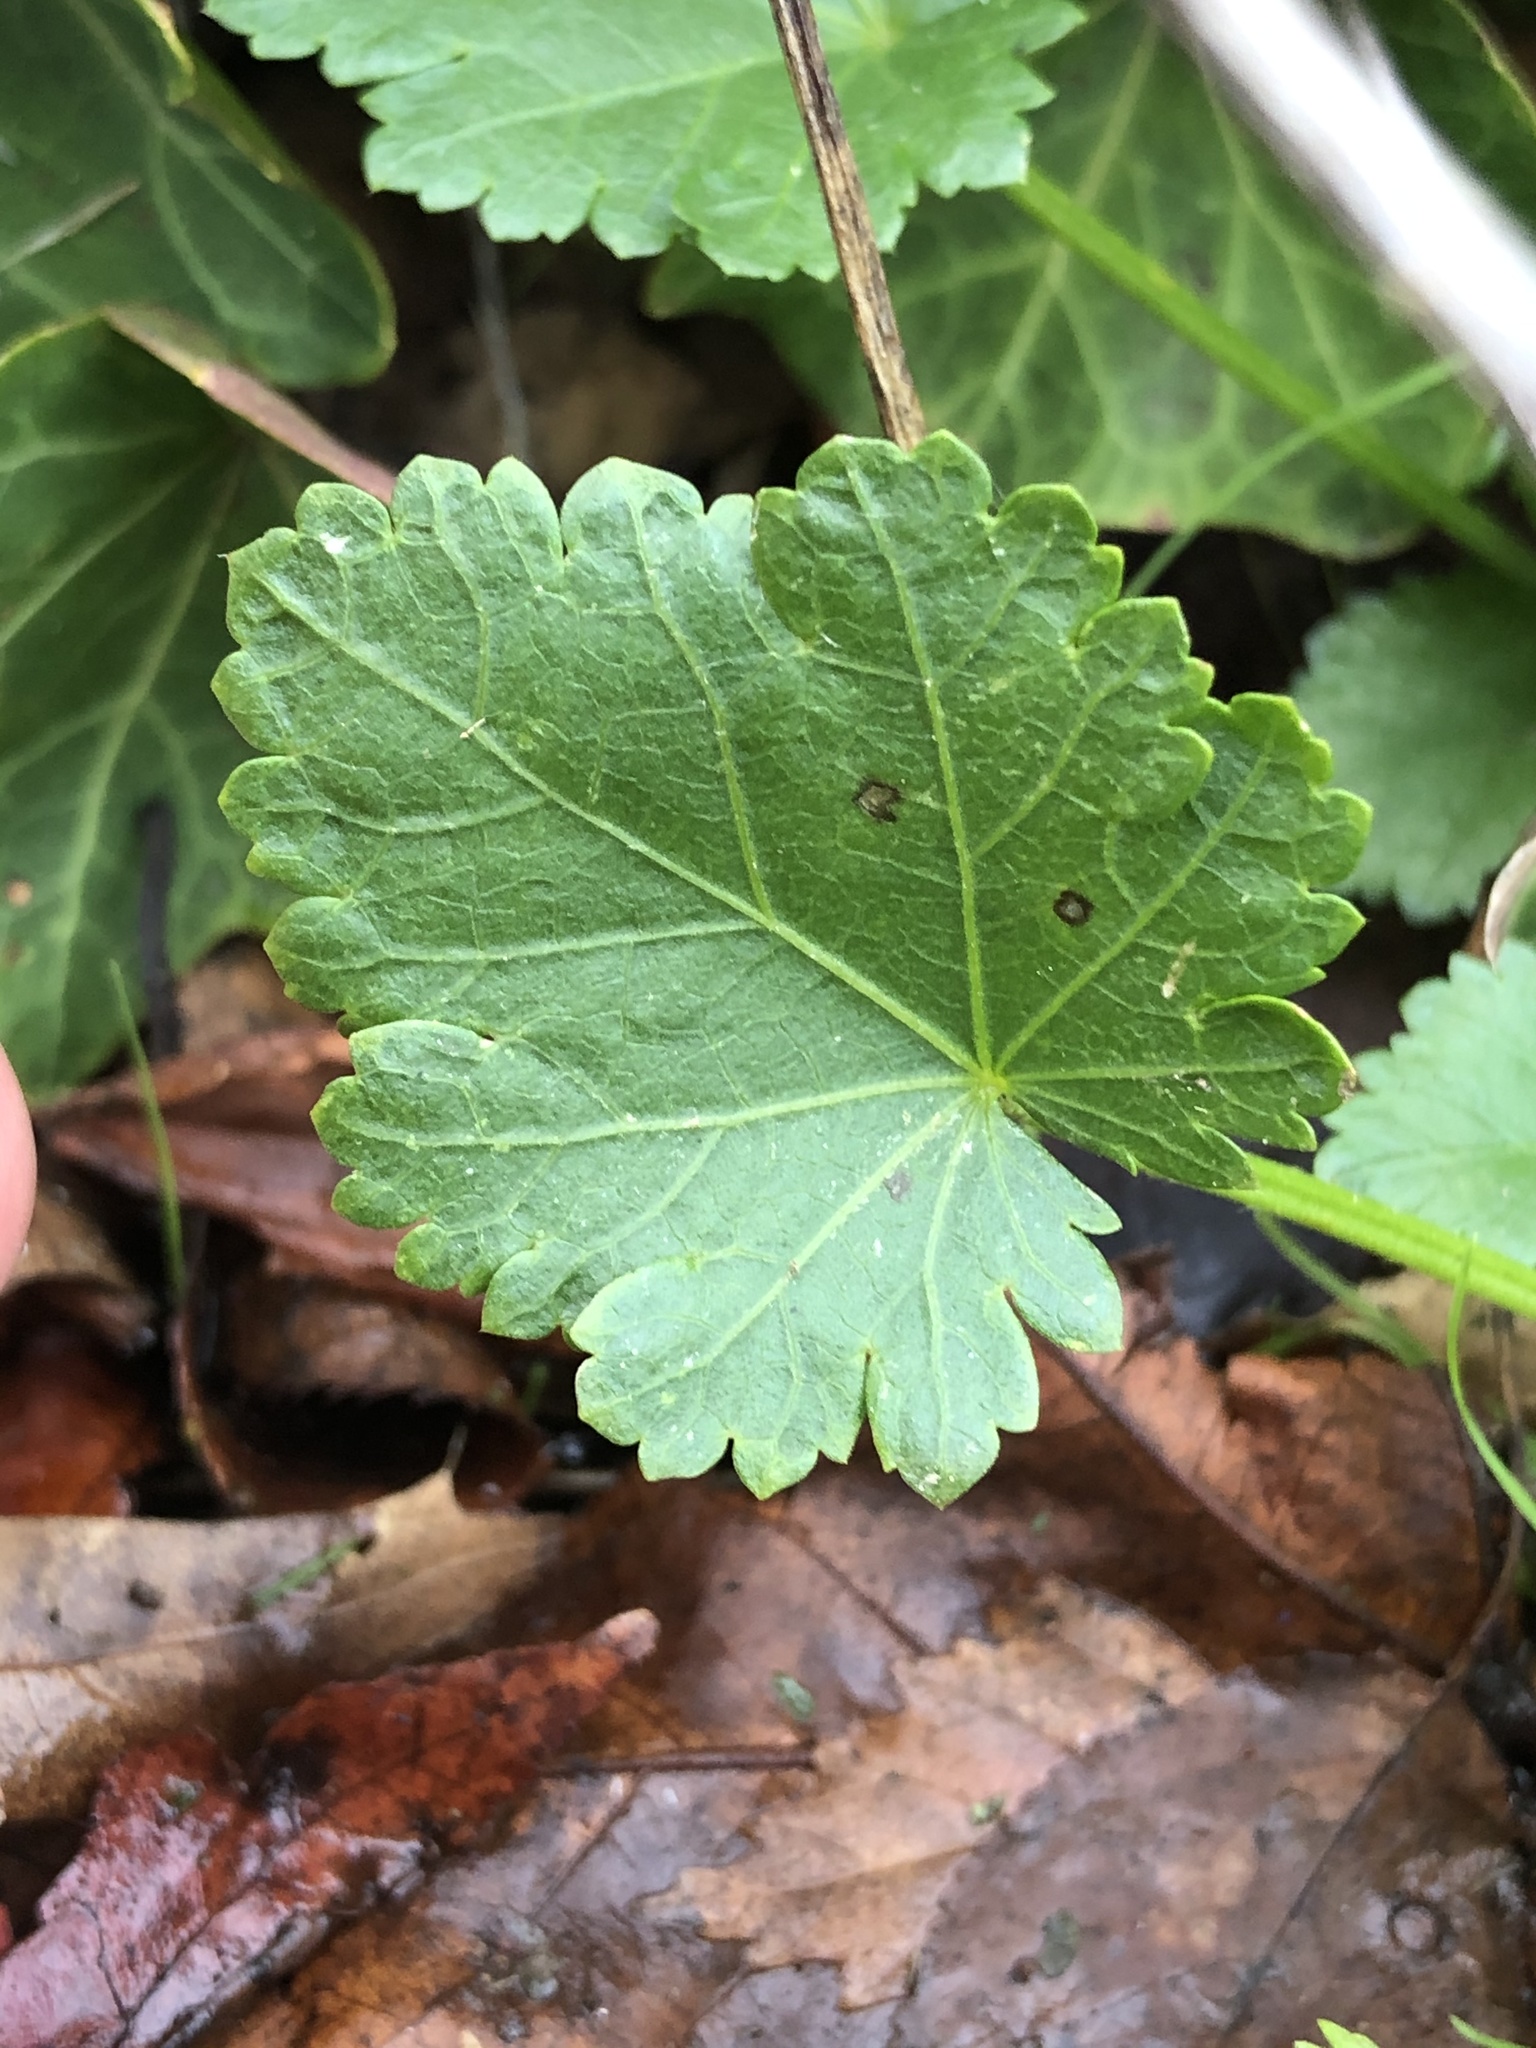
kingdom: Plantae
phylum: Tracheophyta
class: Magnoliopsida
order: Malvales
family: Malvaceae
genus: Modiola
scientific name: Modiola caroliniana
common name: Carolina bristlemallow
